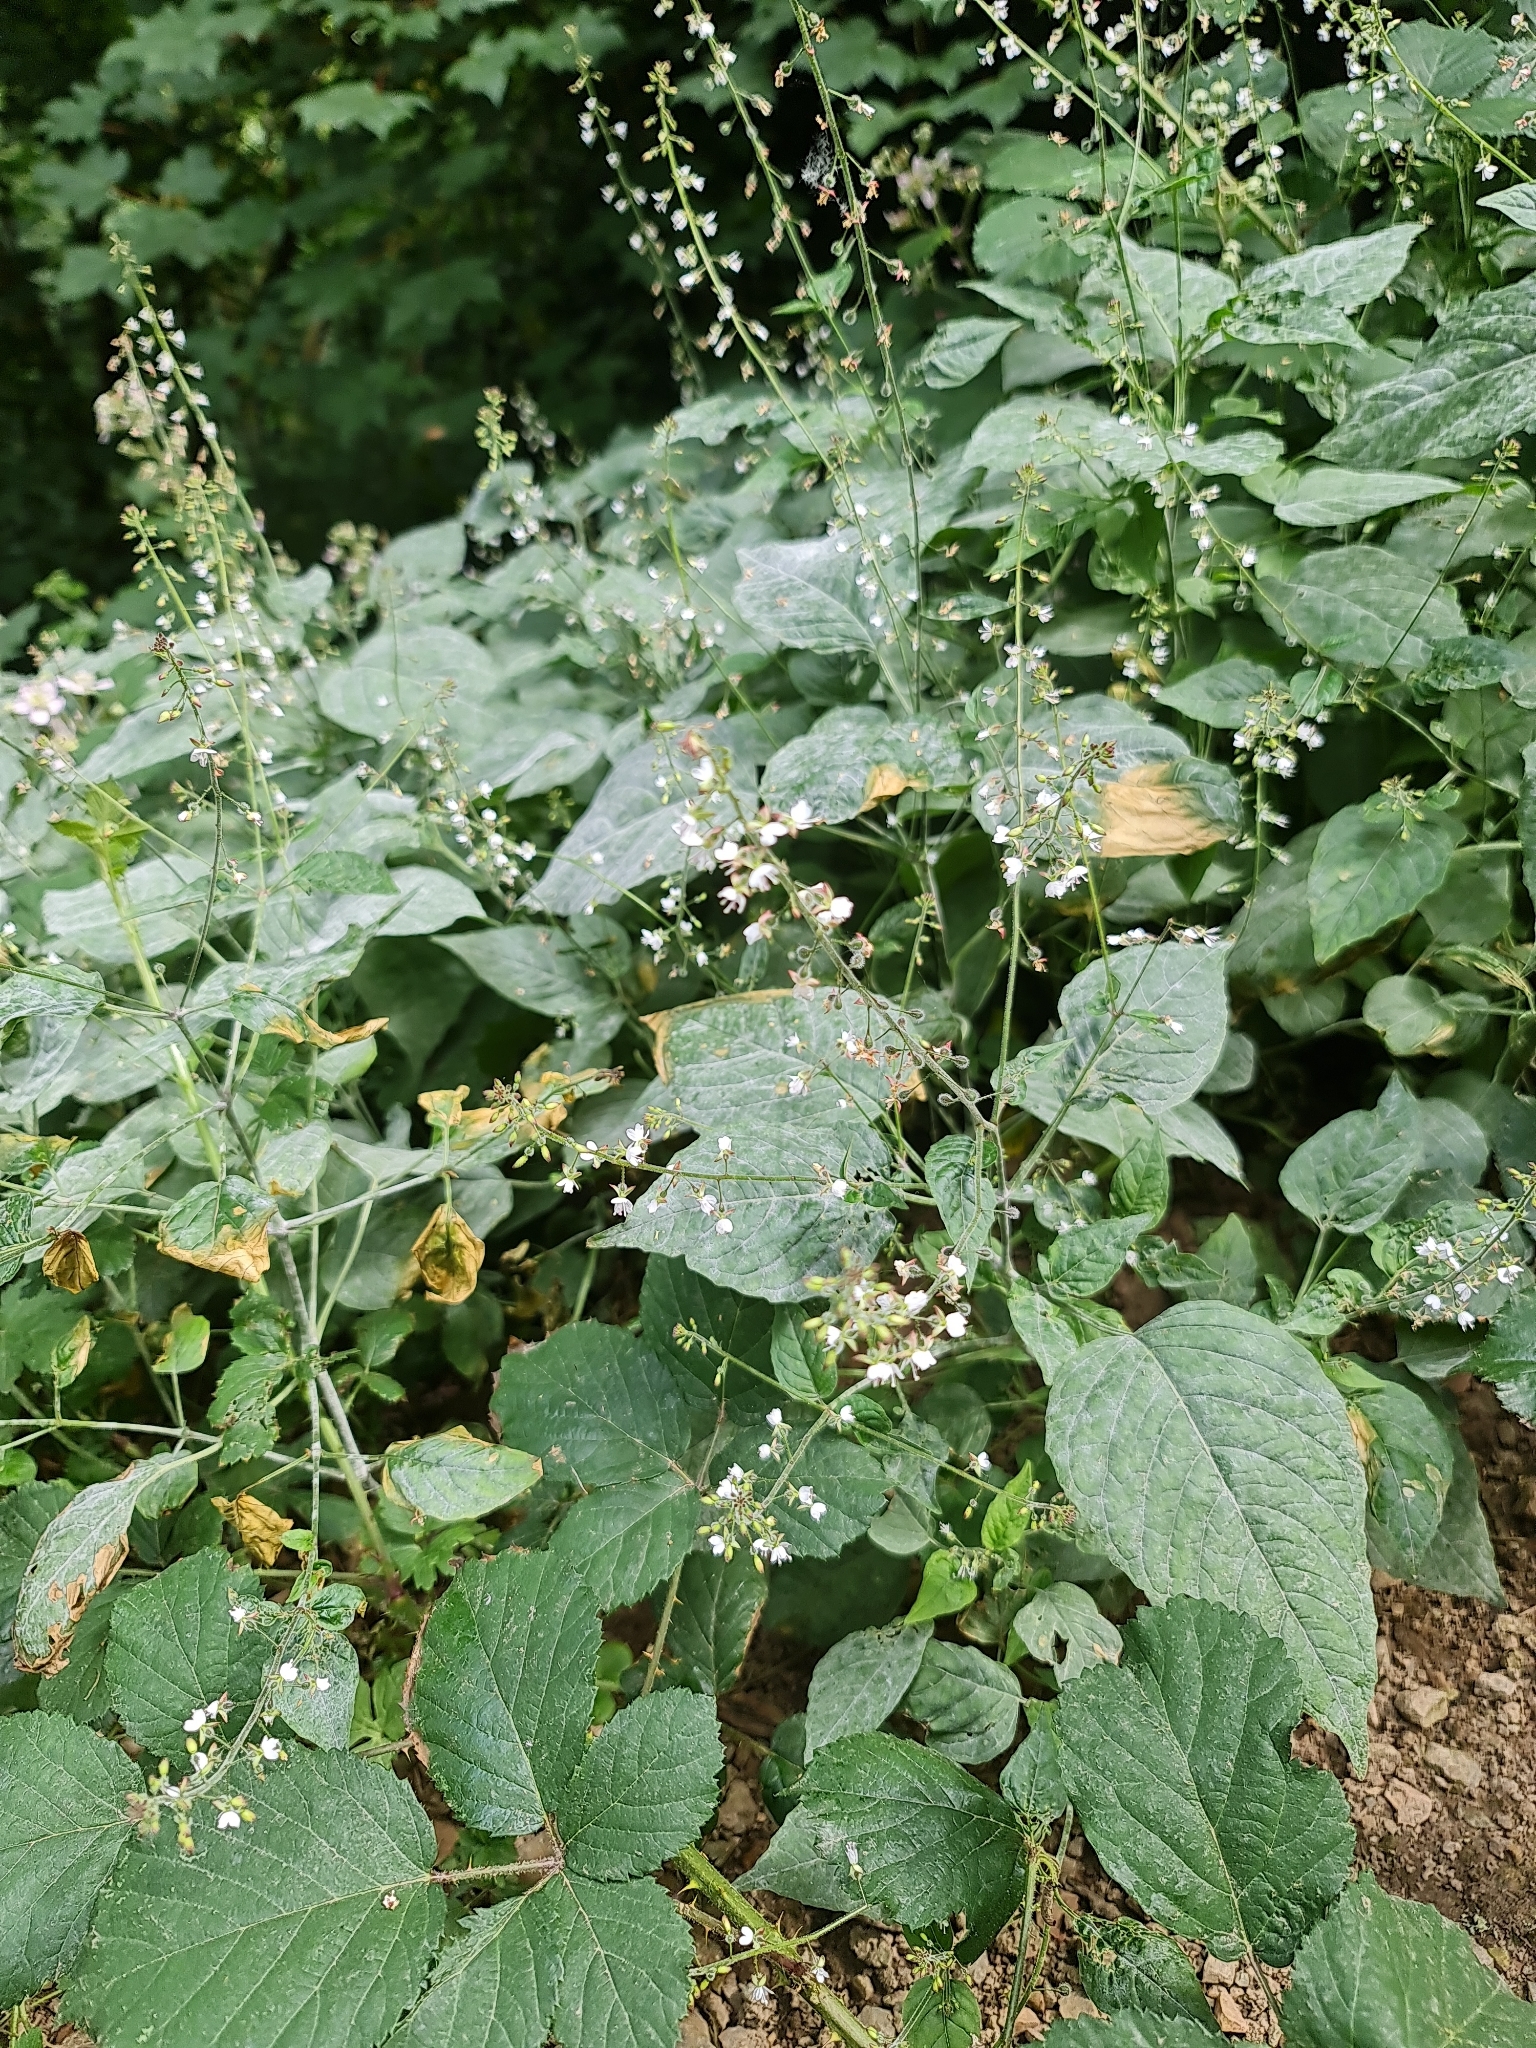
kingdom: Plantae
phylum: Tracheophyta
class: Magnoliopsida
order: Myrtales
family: Onagraceae
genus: Circaea
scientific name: Circaea lutetiana
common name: Enchanter's-nightshade
